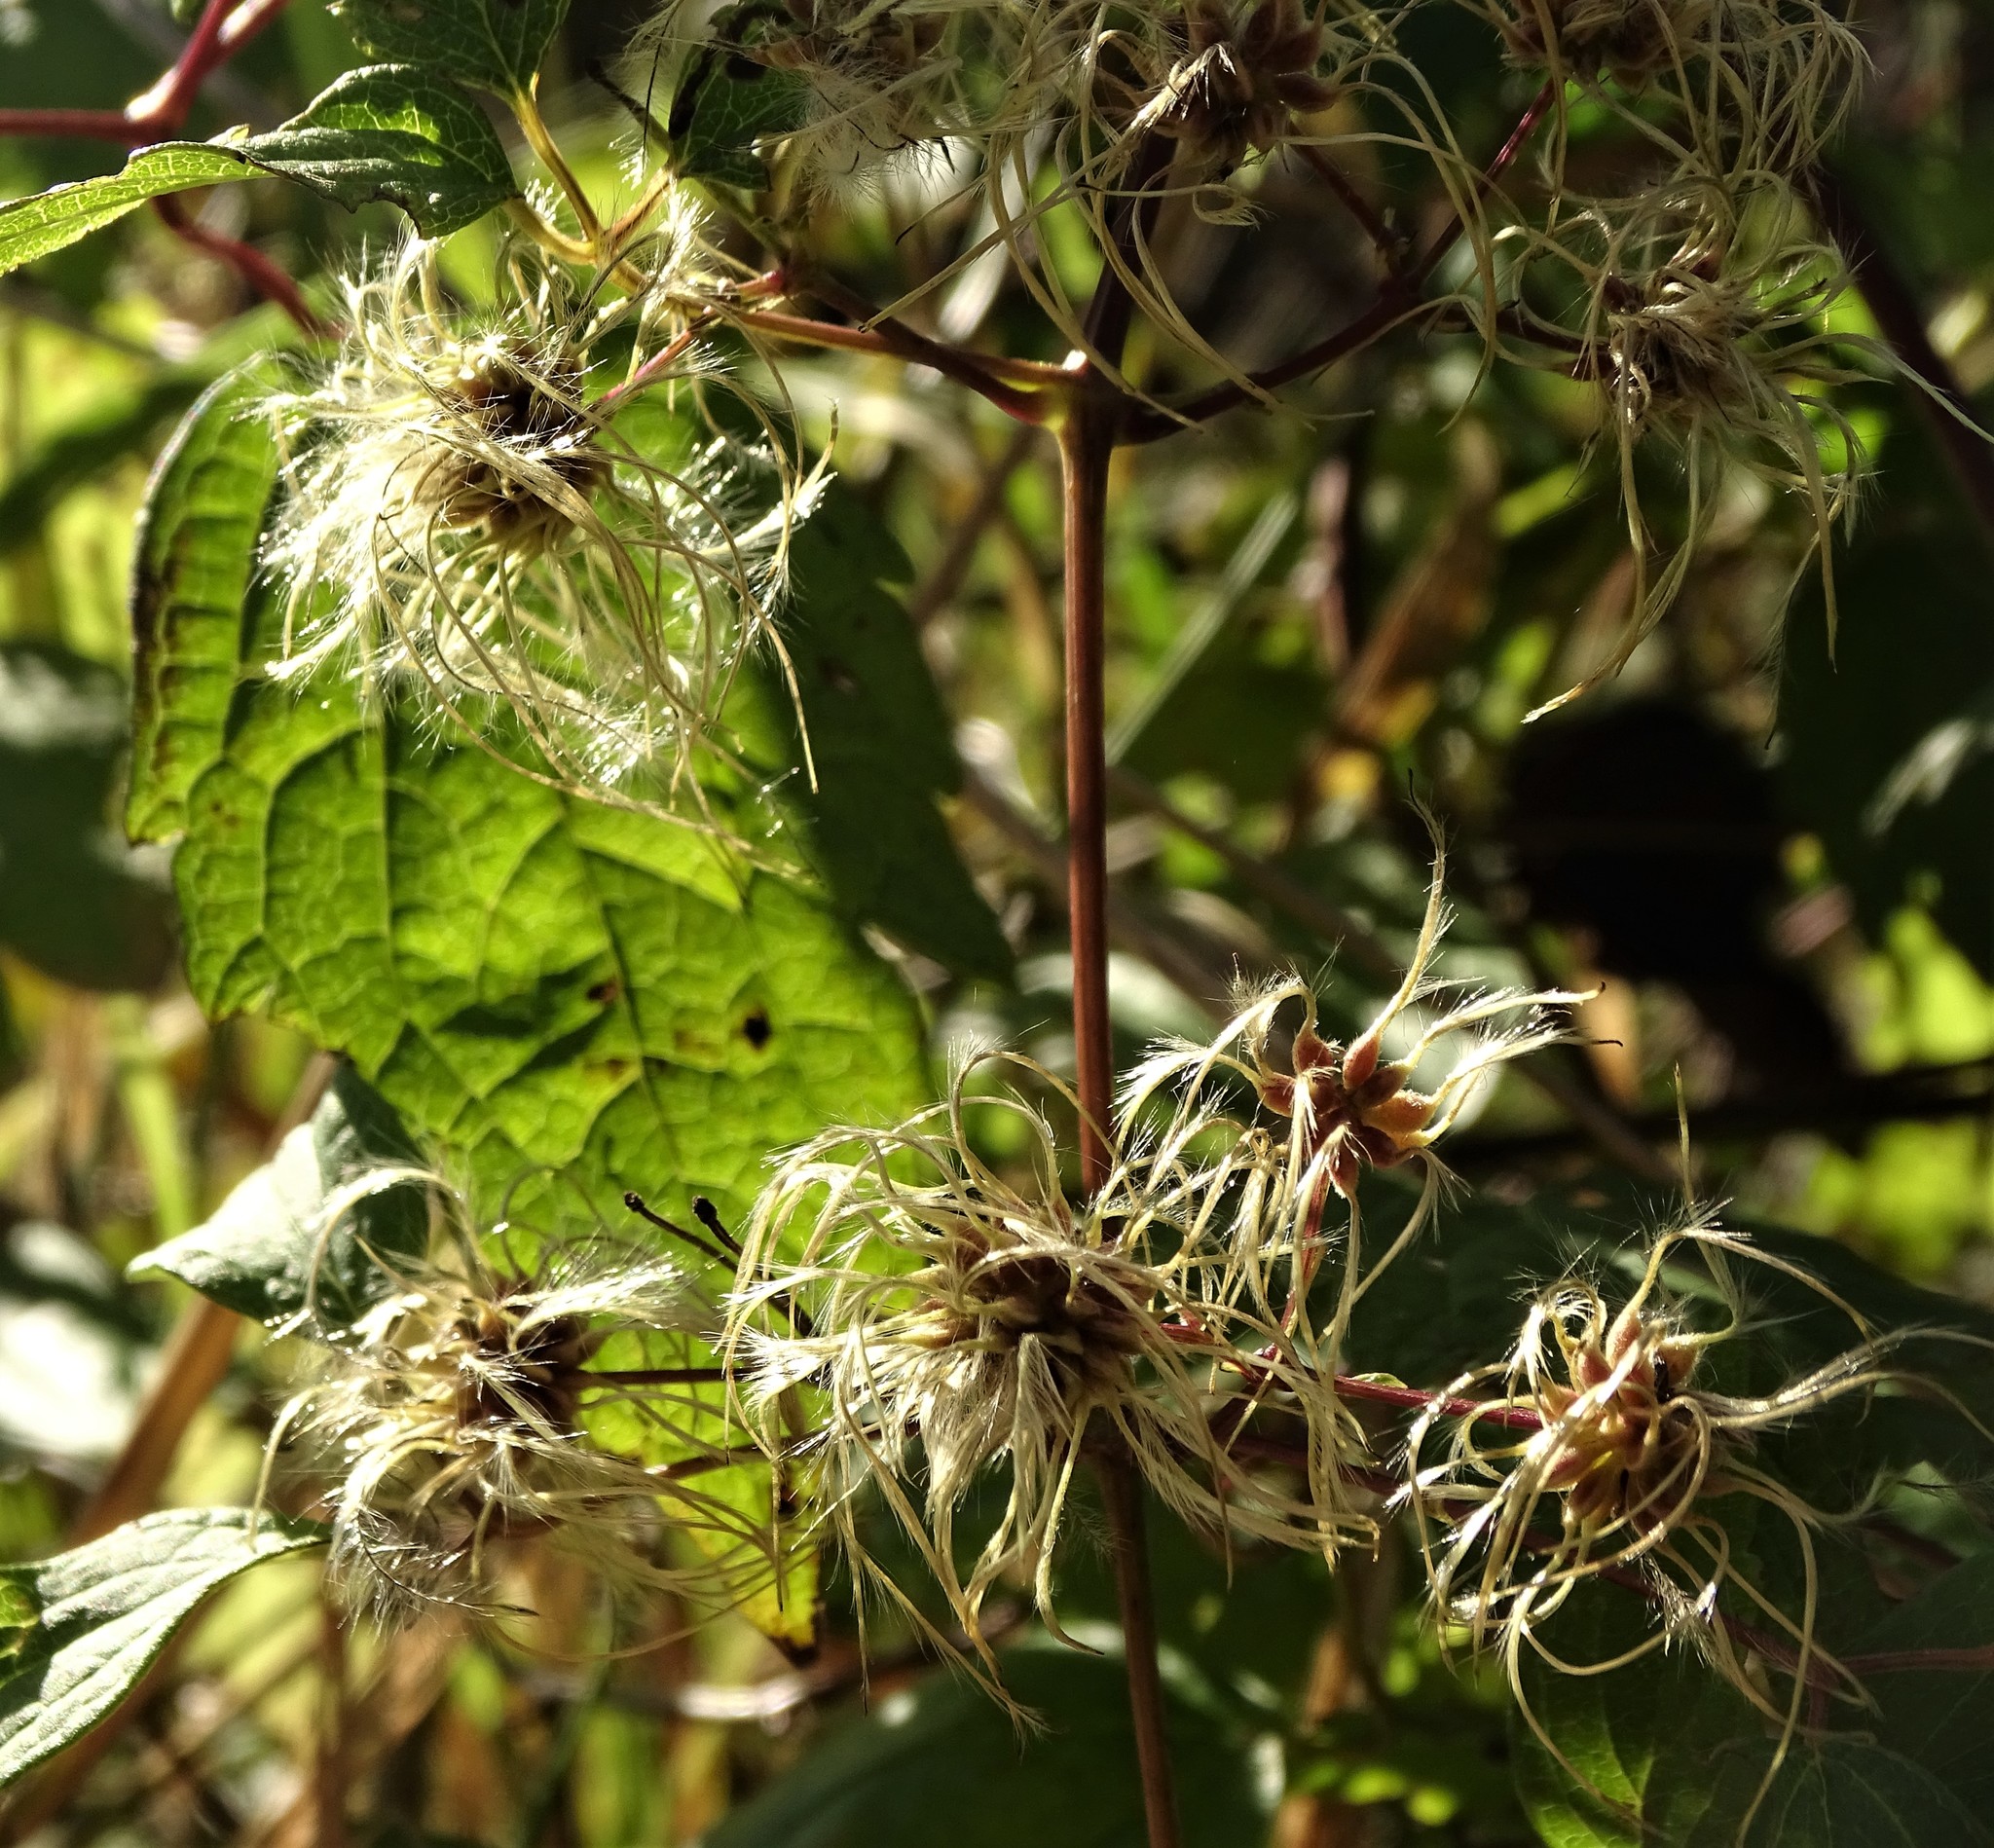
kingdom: Plantae
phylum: Tracheophyta
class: Magnoliopsida
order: Ranunculales
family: Ranunculaceae
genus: Clematis
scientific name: Clematis virginiana
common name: Virgin's-bower
